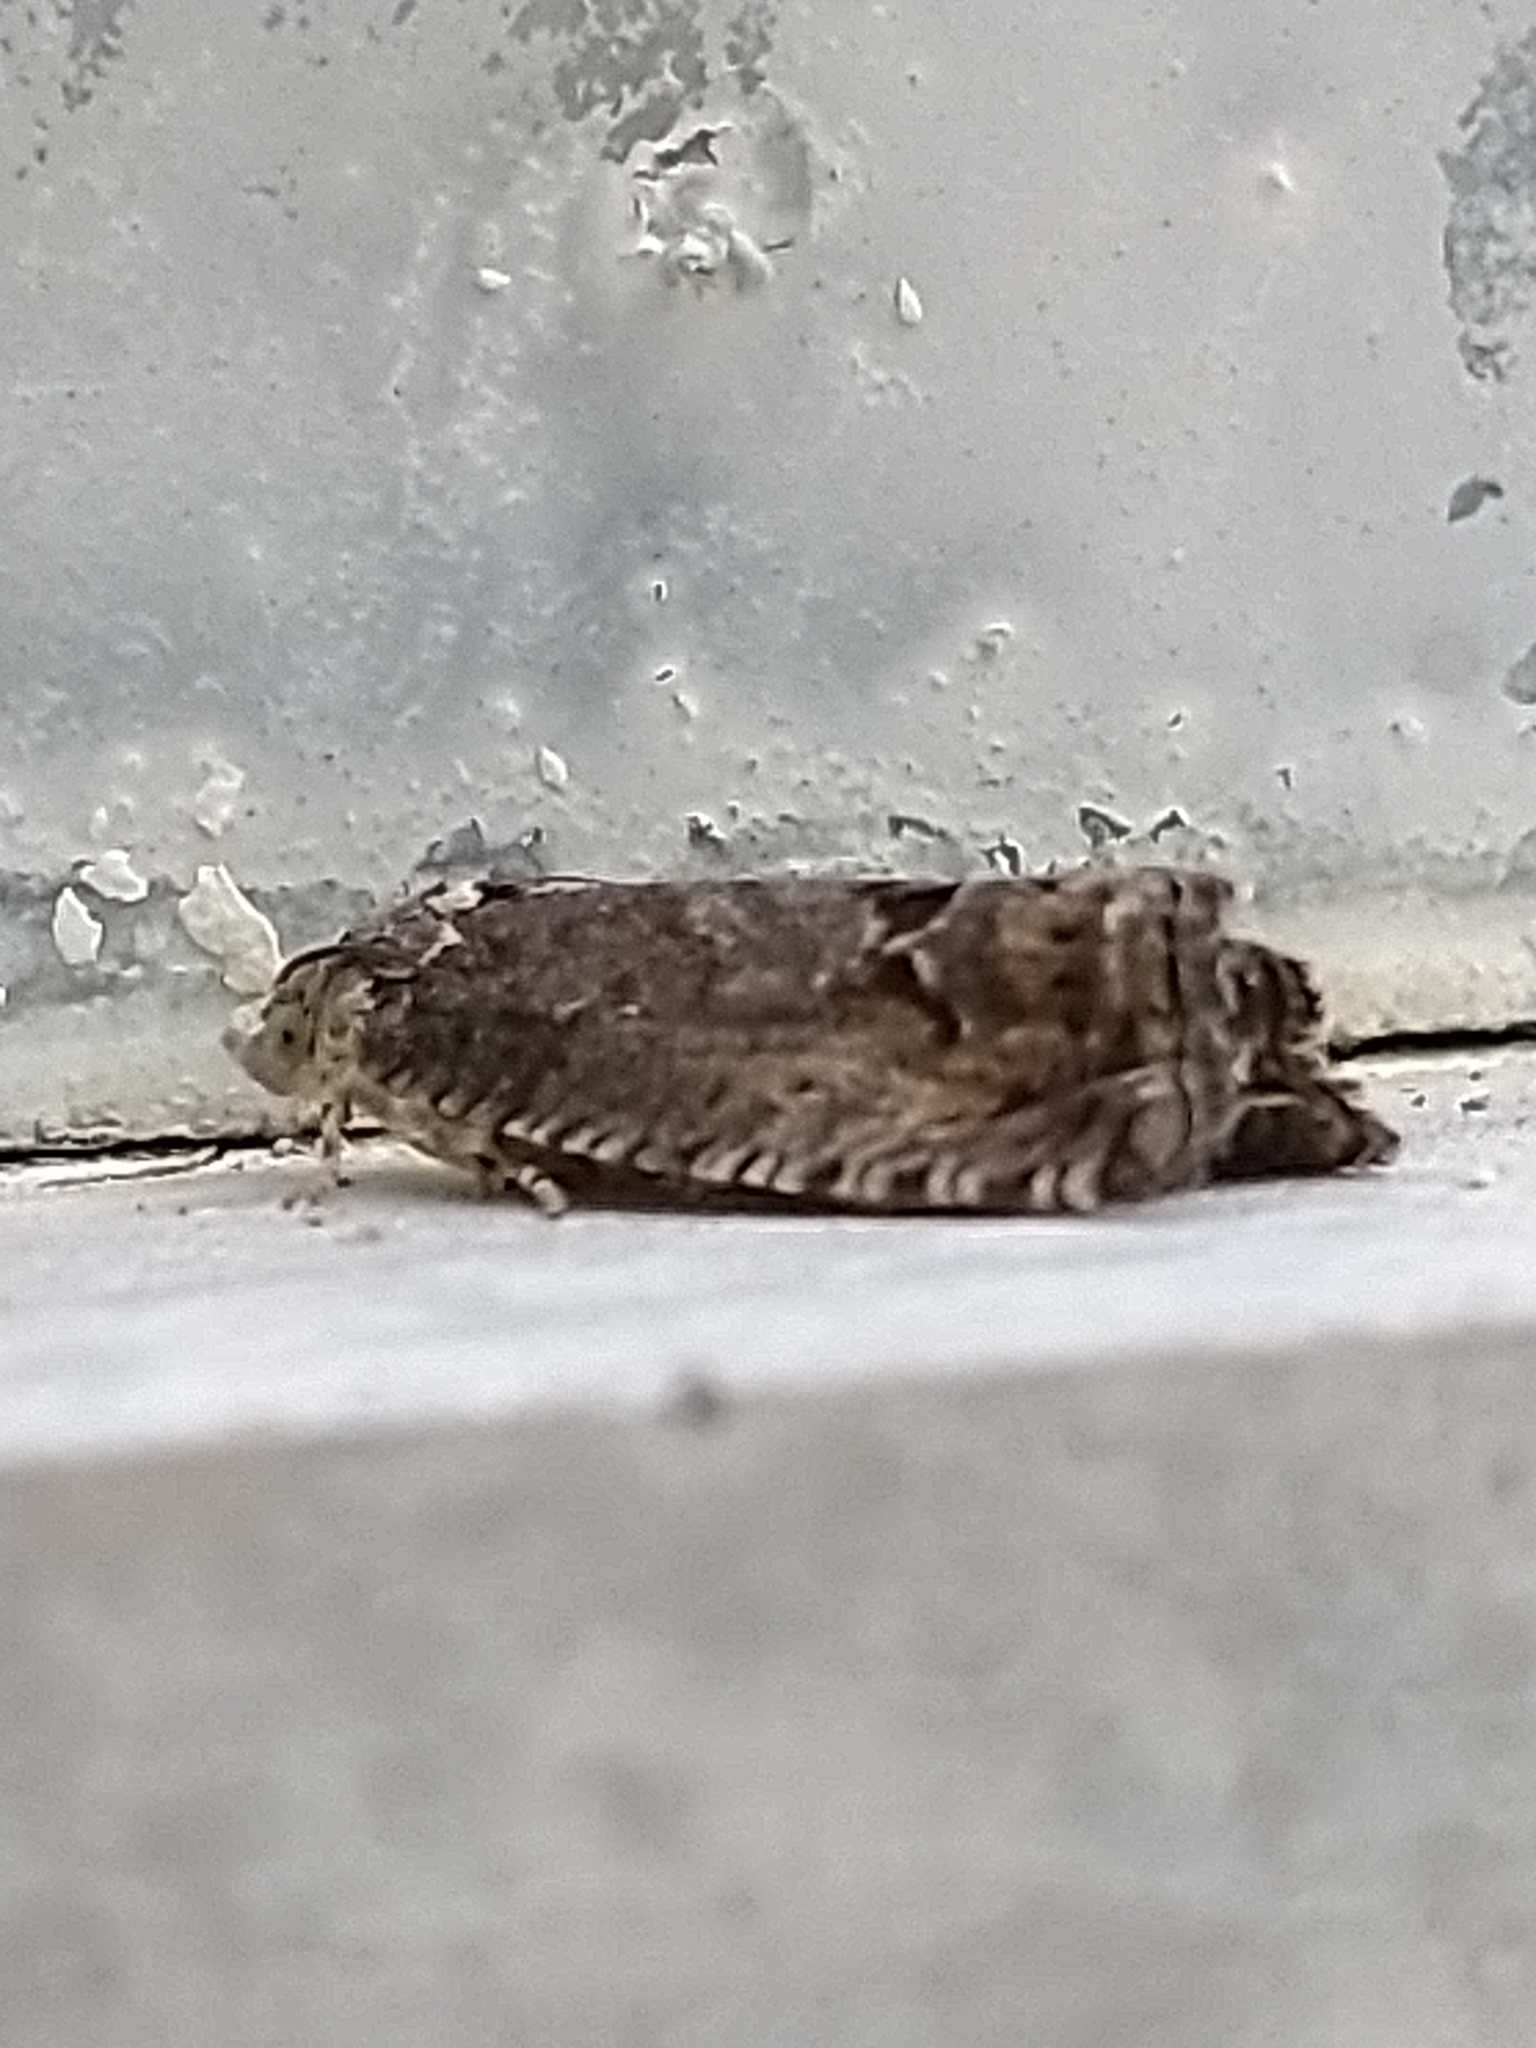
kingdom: Animalia
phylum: Arthropoda
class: Insecta
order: Lepidoptera
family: Tortricidae
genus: Cydia
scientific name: Cydia splendana
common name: De: kastanienwickler, eichenwickler es: oruga de la castaña fr: carpocapse des châtaignes it: cidia o tortrice tardiva delle castagne pt: bichado das castanhas gb: acorn moth, chestnut fruit tortrix
